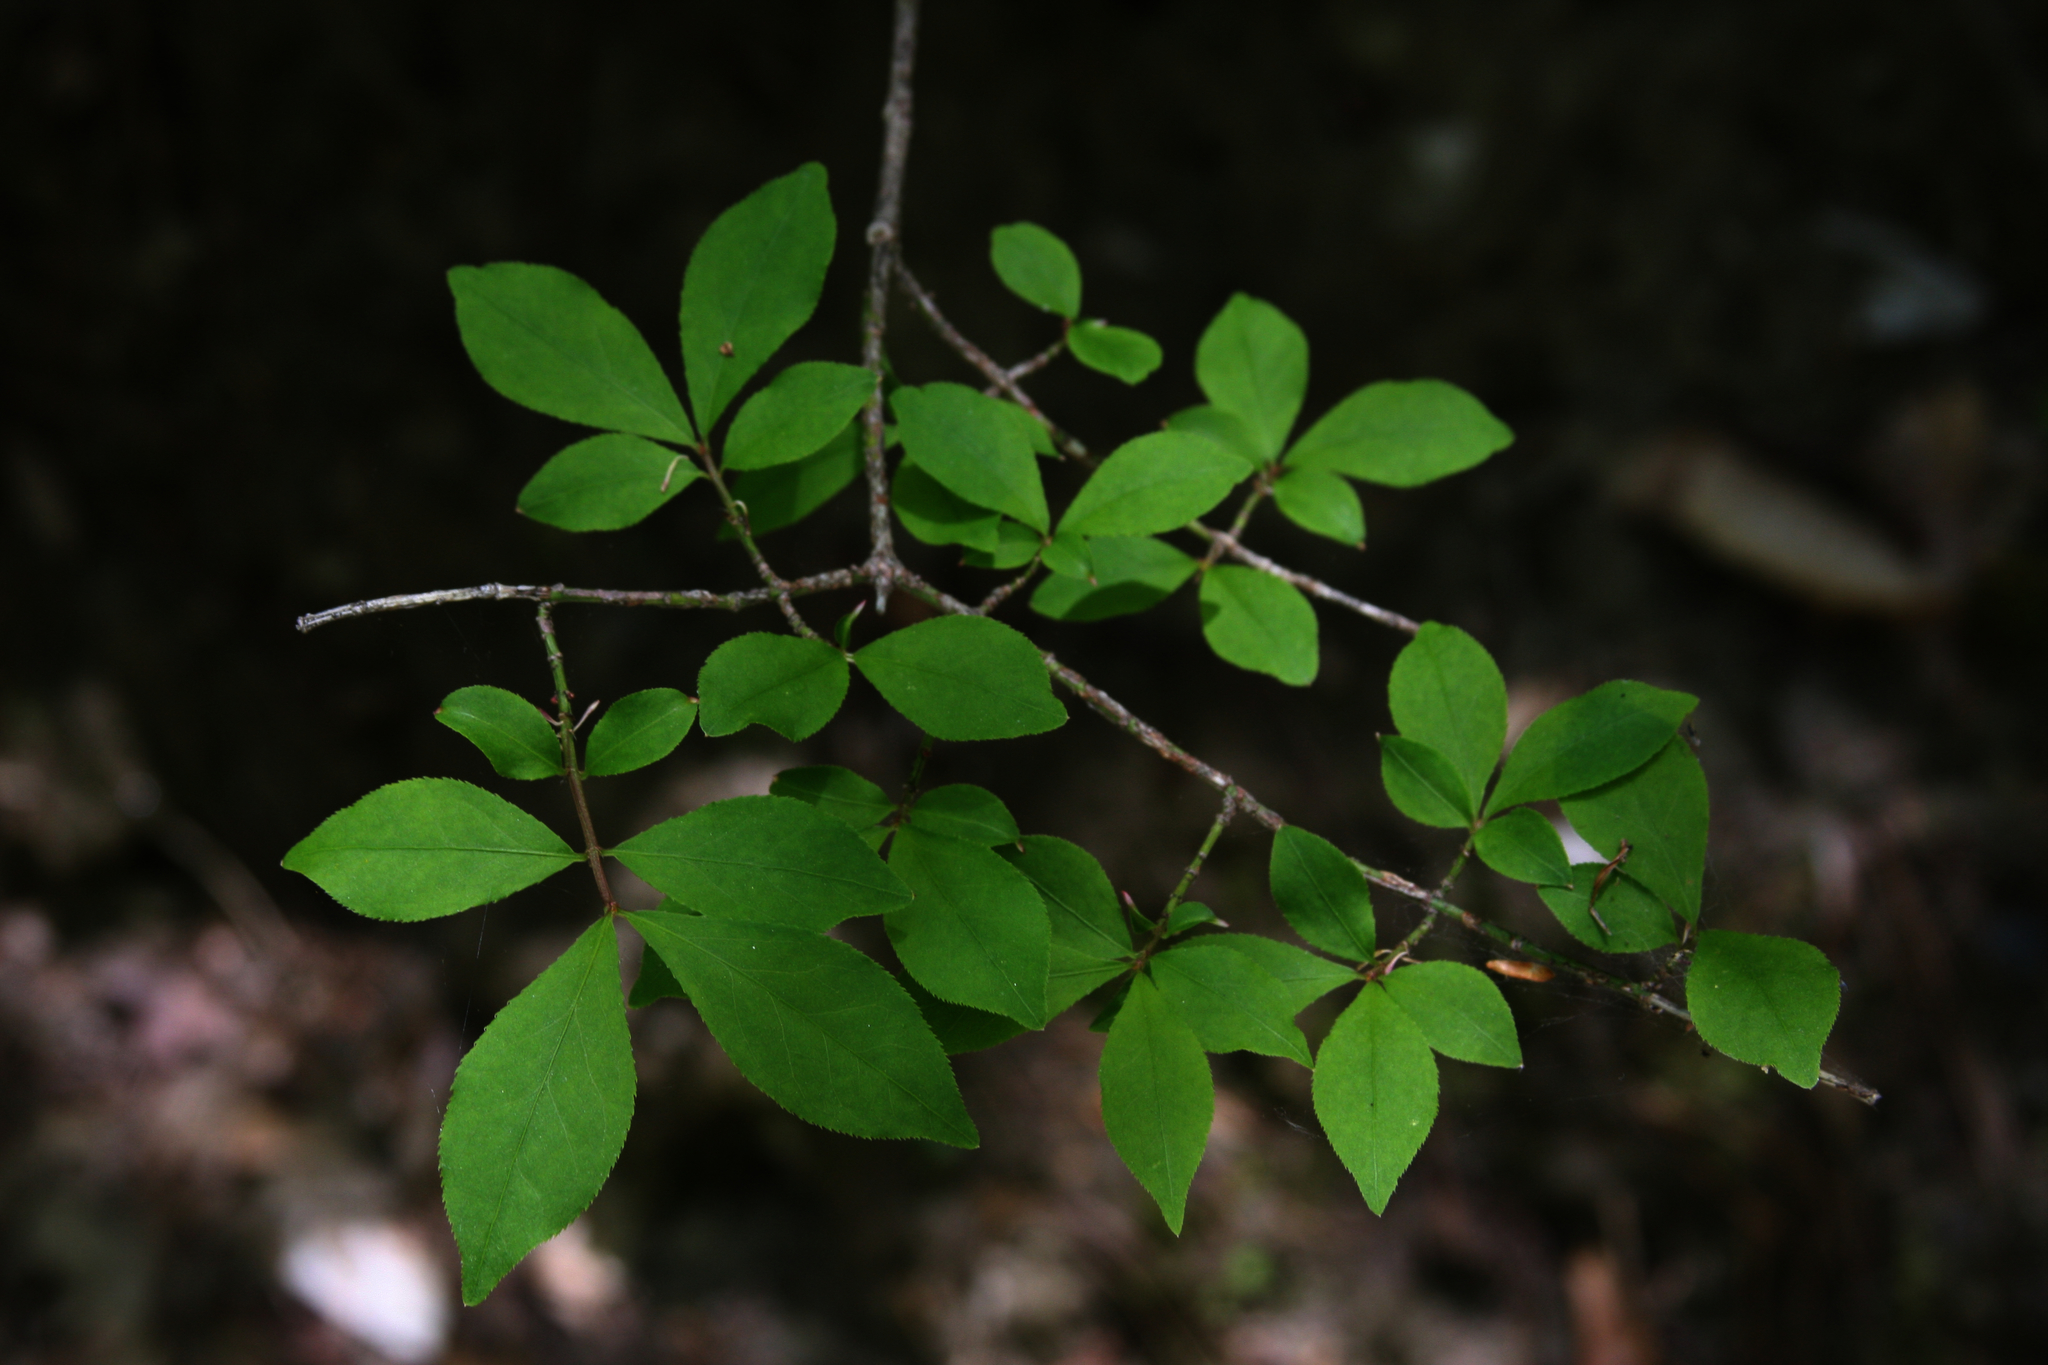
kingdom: Plantae
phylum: Tracheophyta
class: Magnoliopsida
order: Dipsacales
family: Caprifoliaceae
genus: Lonicera
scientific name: Lonicera canadensis
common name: American fly-honeysuckle
